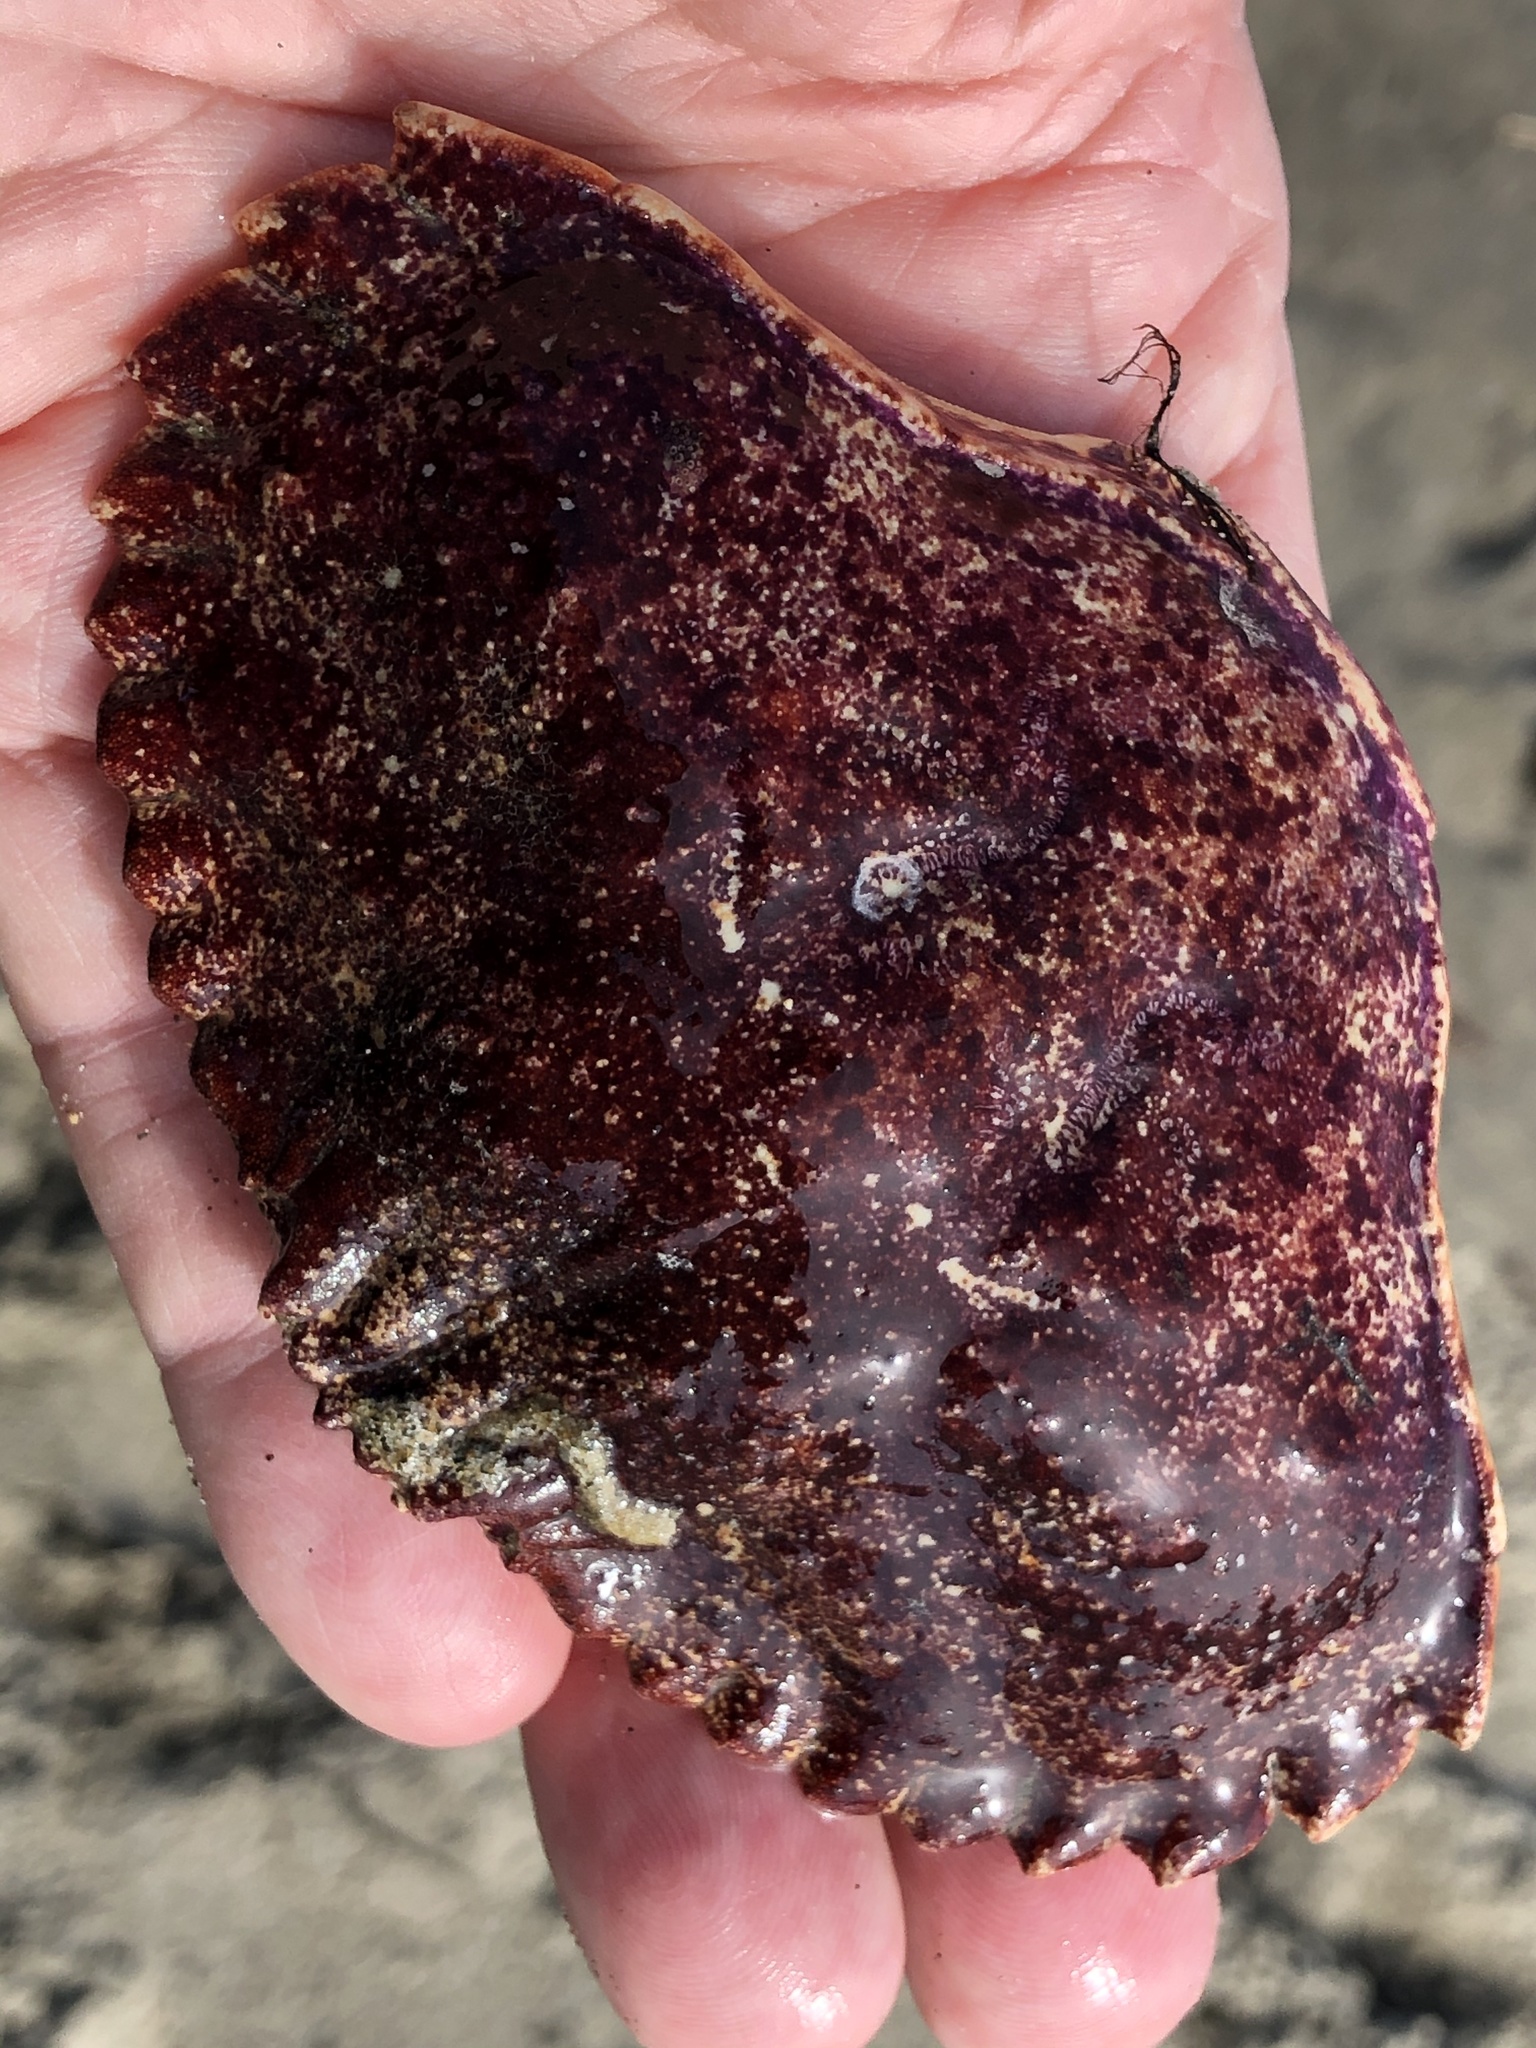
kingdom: Animalia
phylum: Arthropoda
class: Malacostraca
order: Decapoda
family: Cancridae
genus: Cancer
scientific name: Cancer productus
